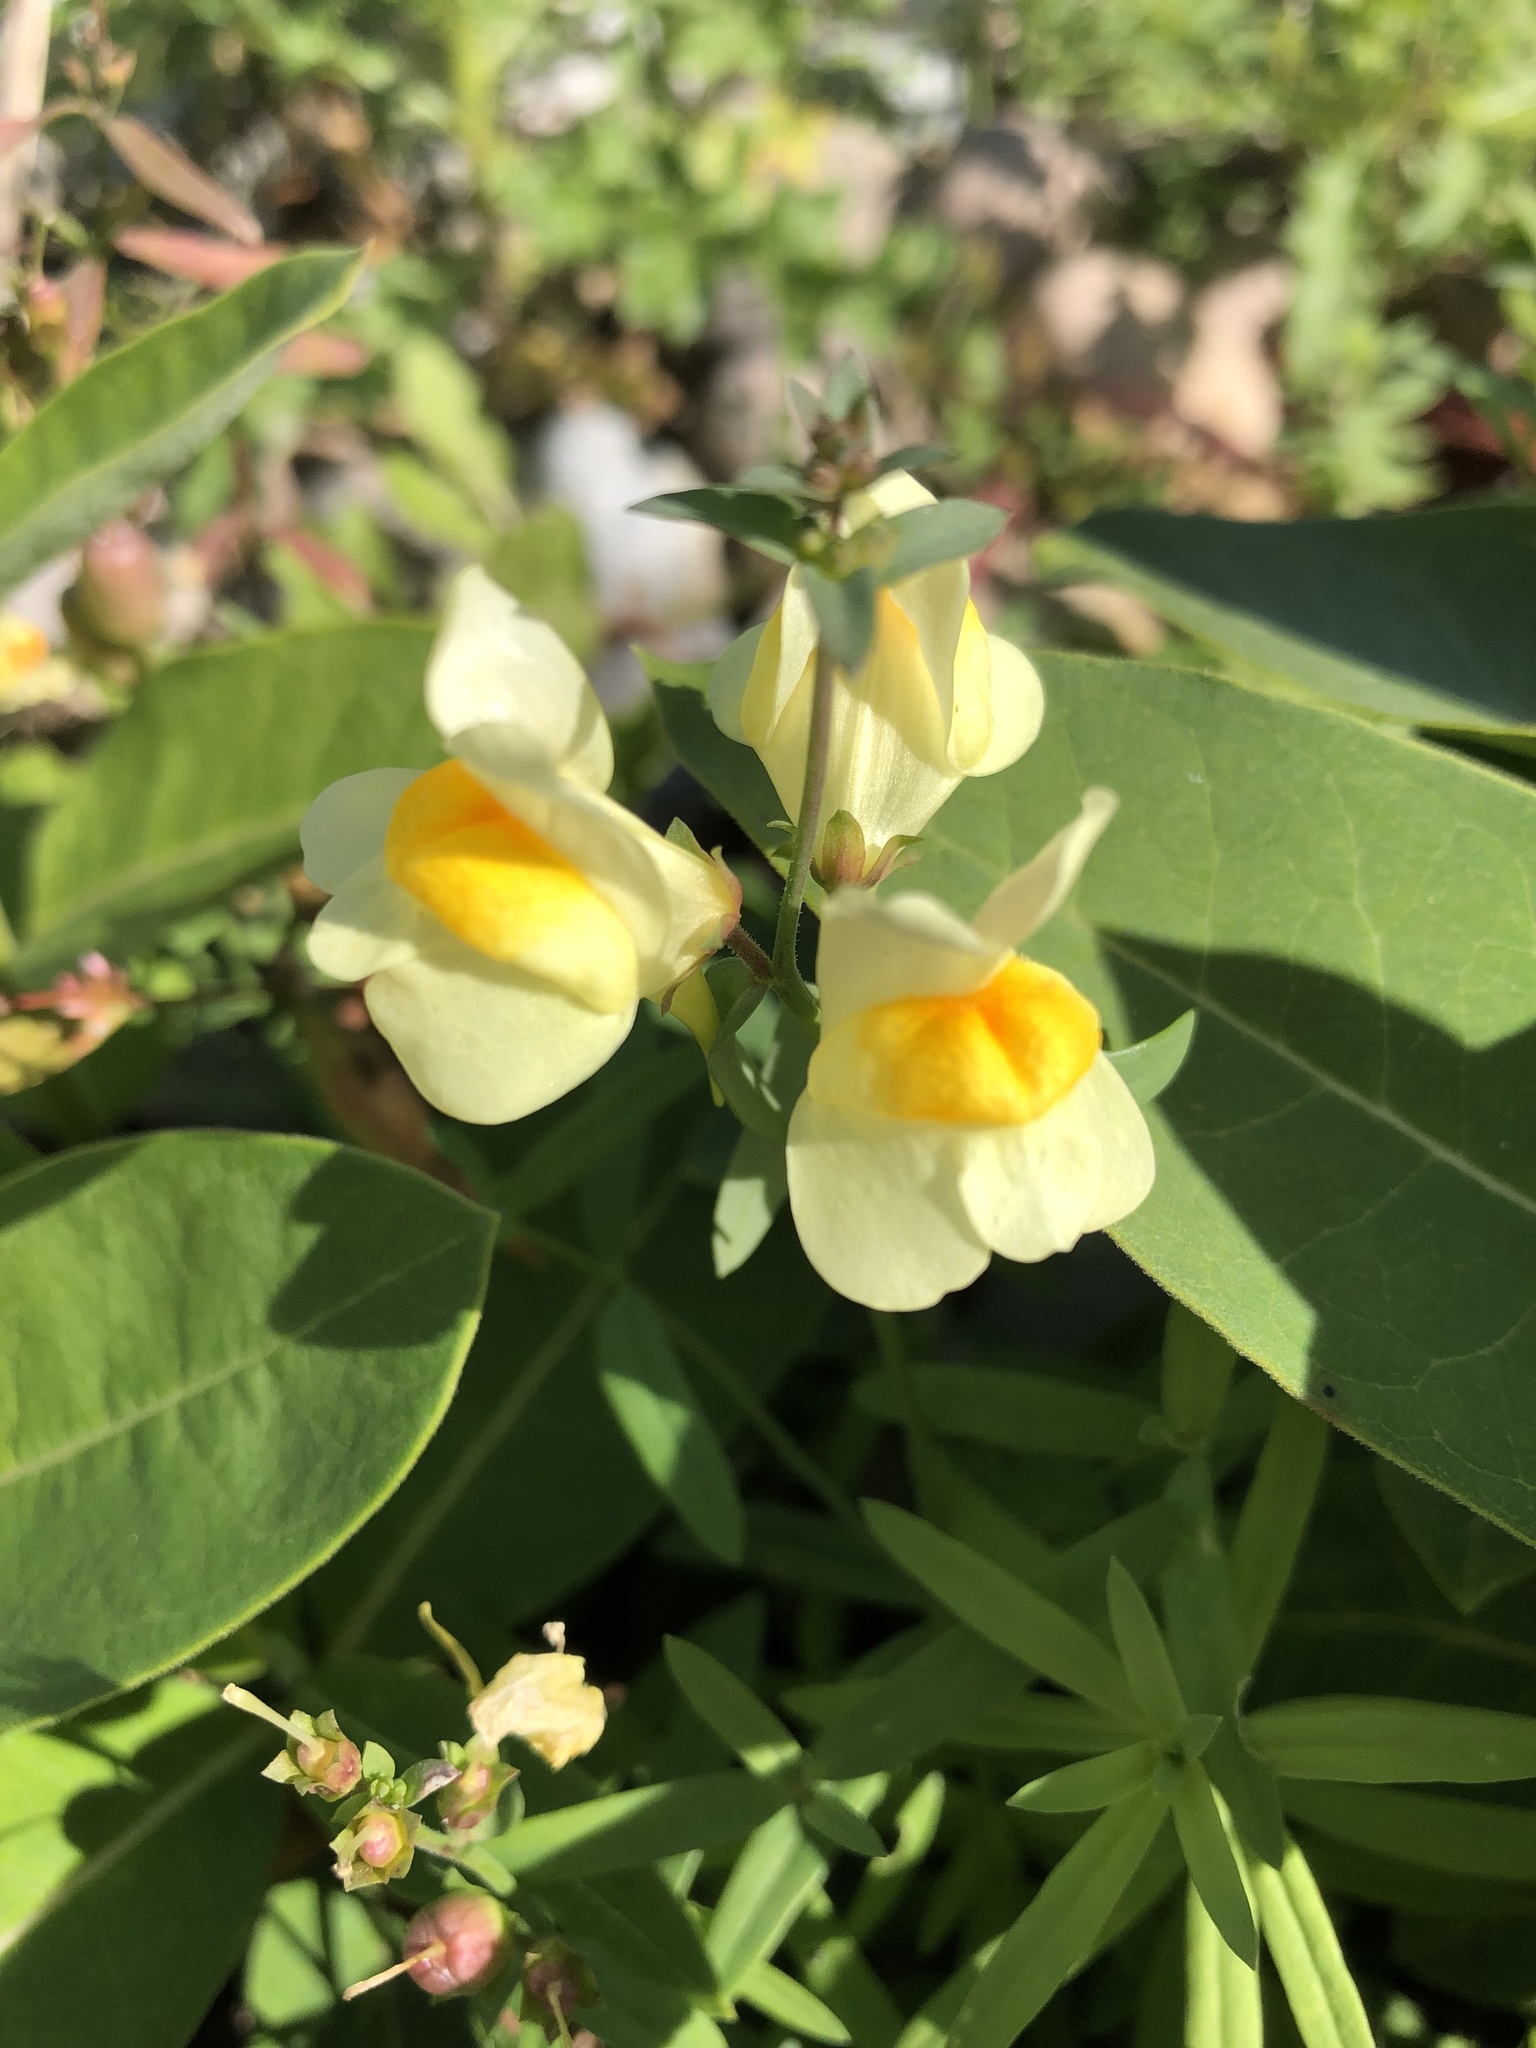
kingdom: Plantae
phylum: Tracheophyta
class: Magnoliopsida
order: Lamiales
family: Plantaginaceae
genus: Linaria
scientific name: Linaria vulgaris
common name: Butter and eggs
